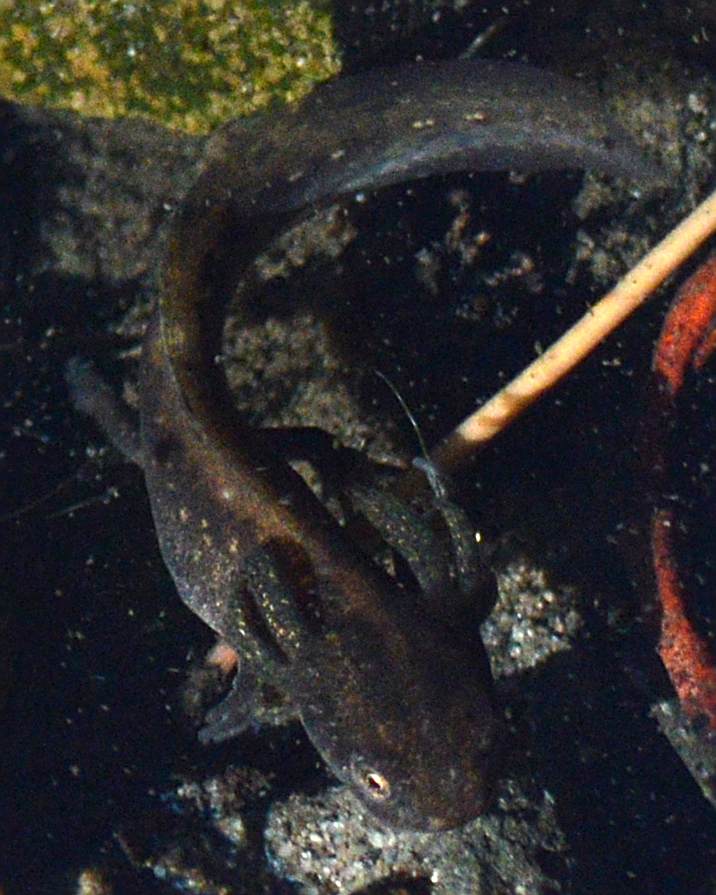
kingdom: Animalia
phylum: Chordata
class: Amphibia
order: Caudata
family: Salamandridae
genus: Triturus
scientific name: Triturus cristatus
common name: Crested newt
